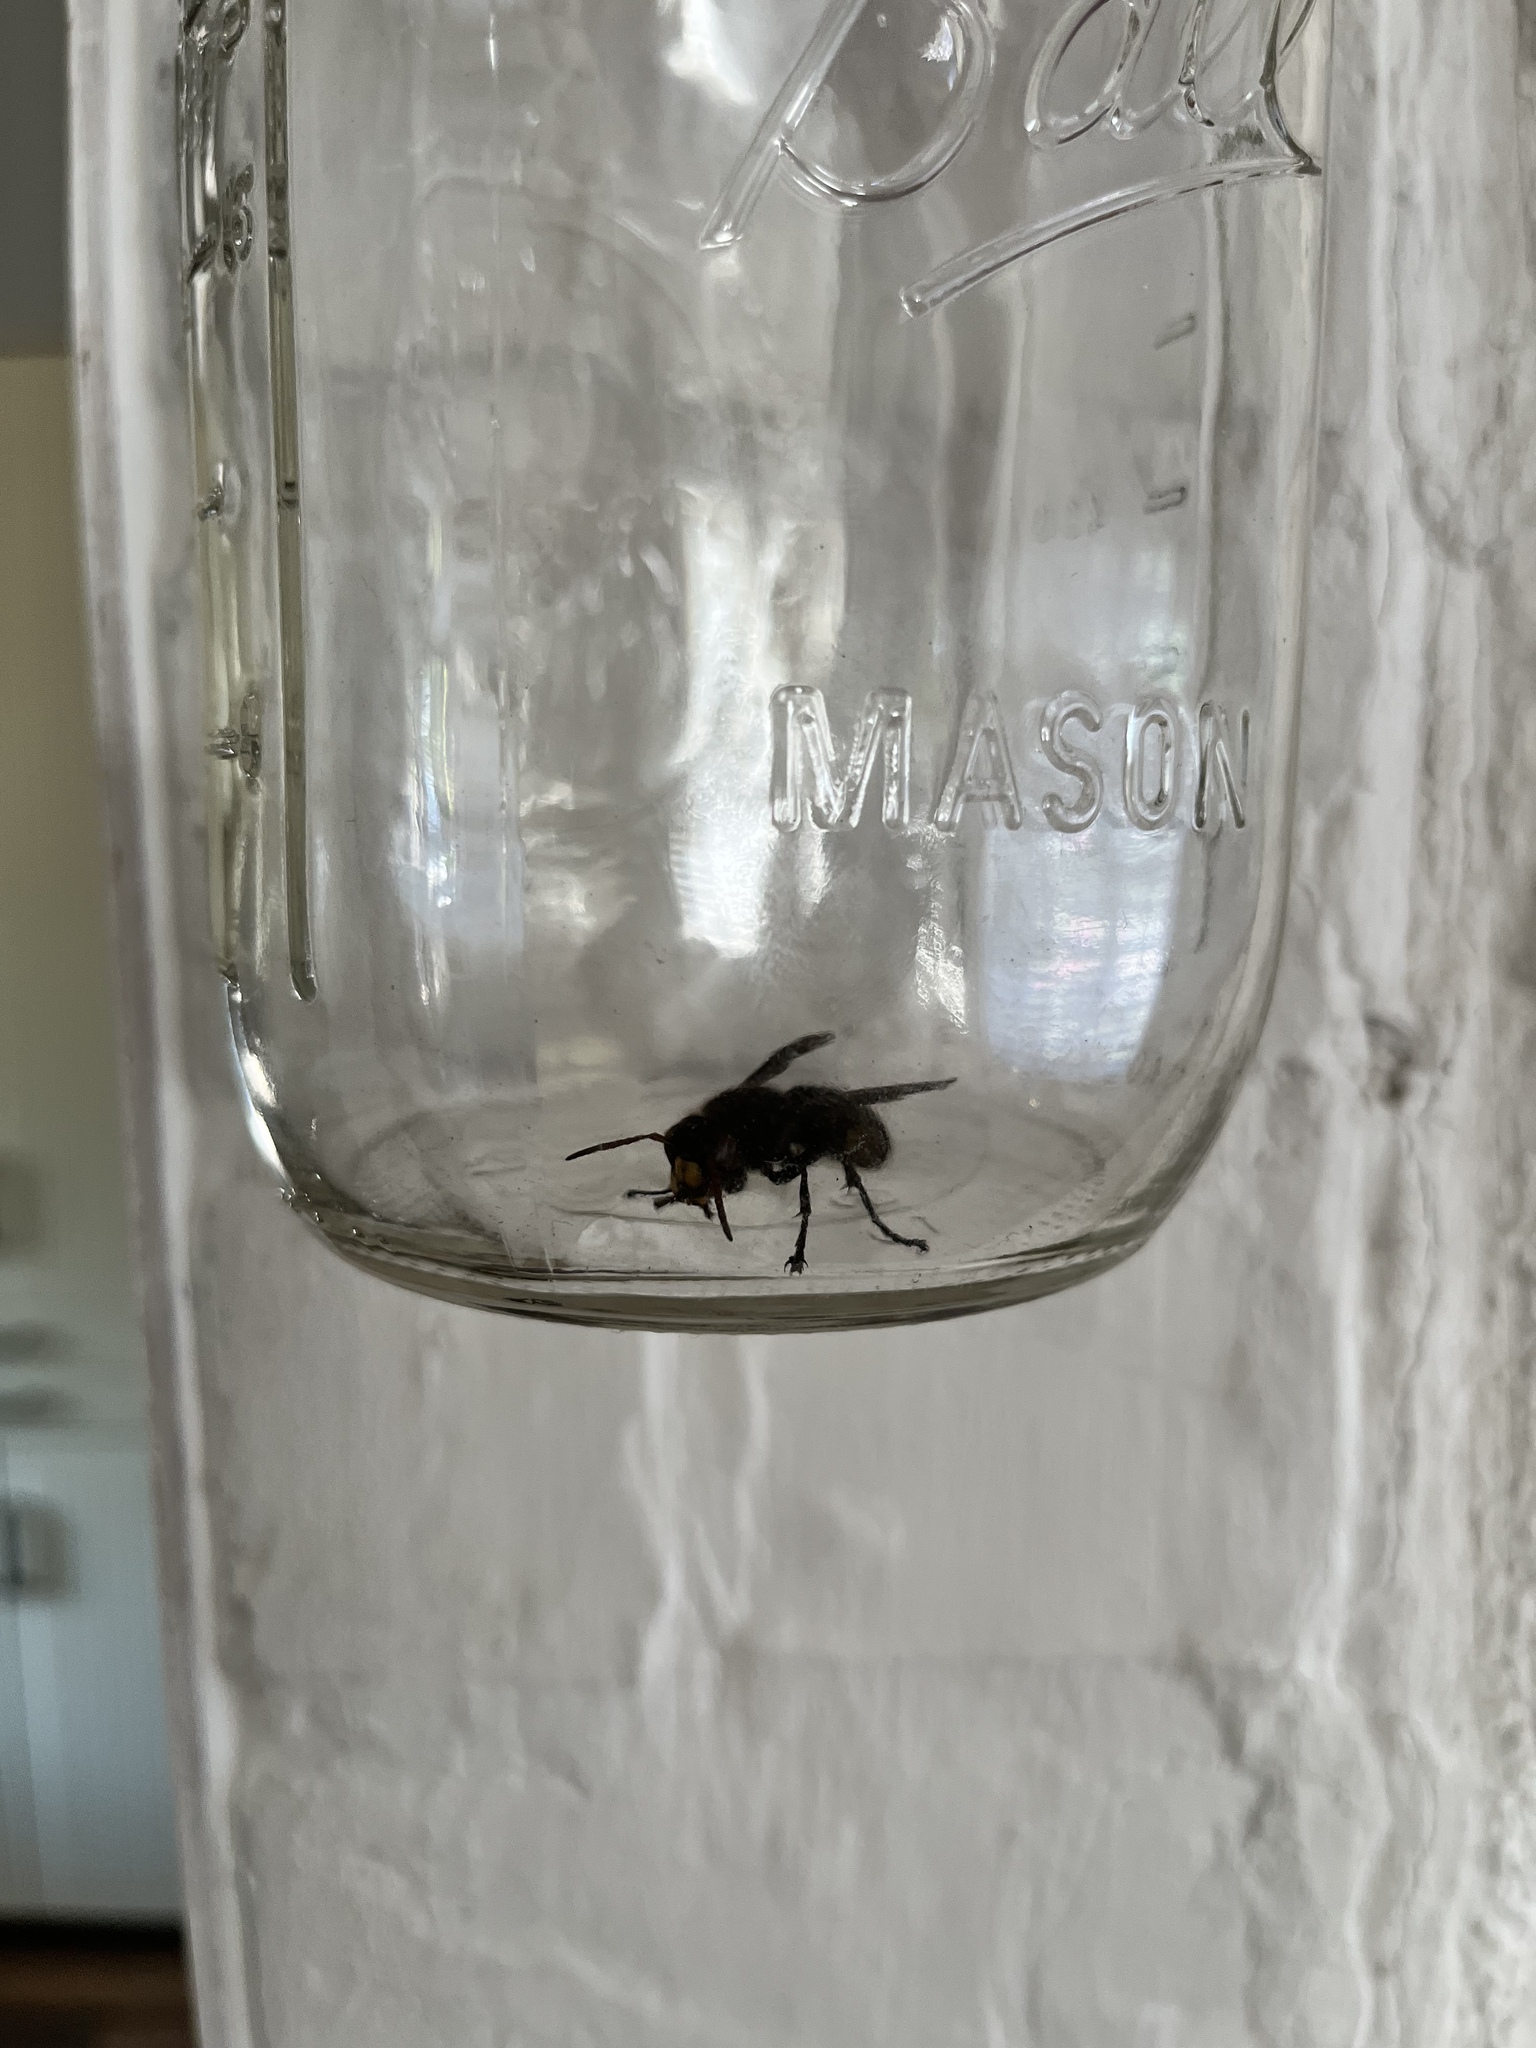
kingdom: Animalia
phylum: Arthropoda
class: Insecta
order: Hymenoptera
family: Vespidae
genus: Vespa
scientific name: Vespa crabro
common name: Hornet
